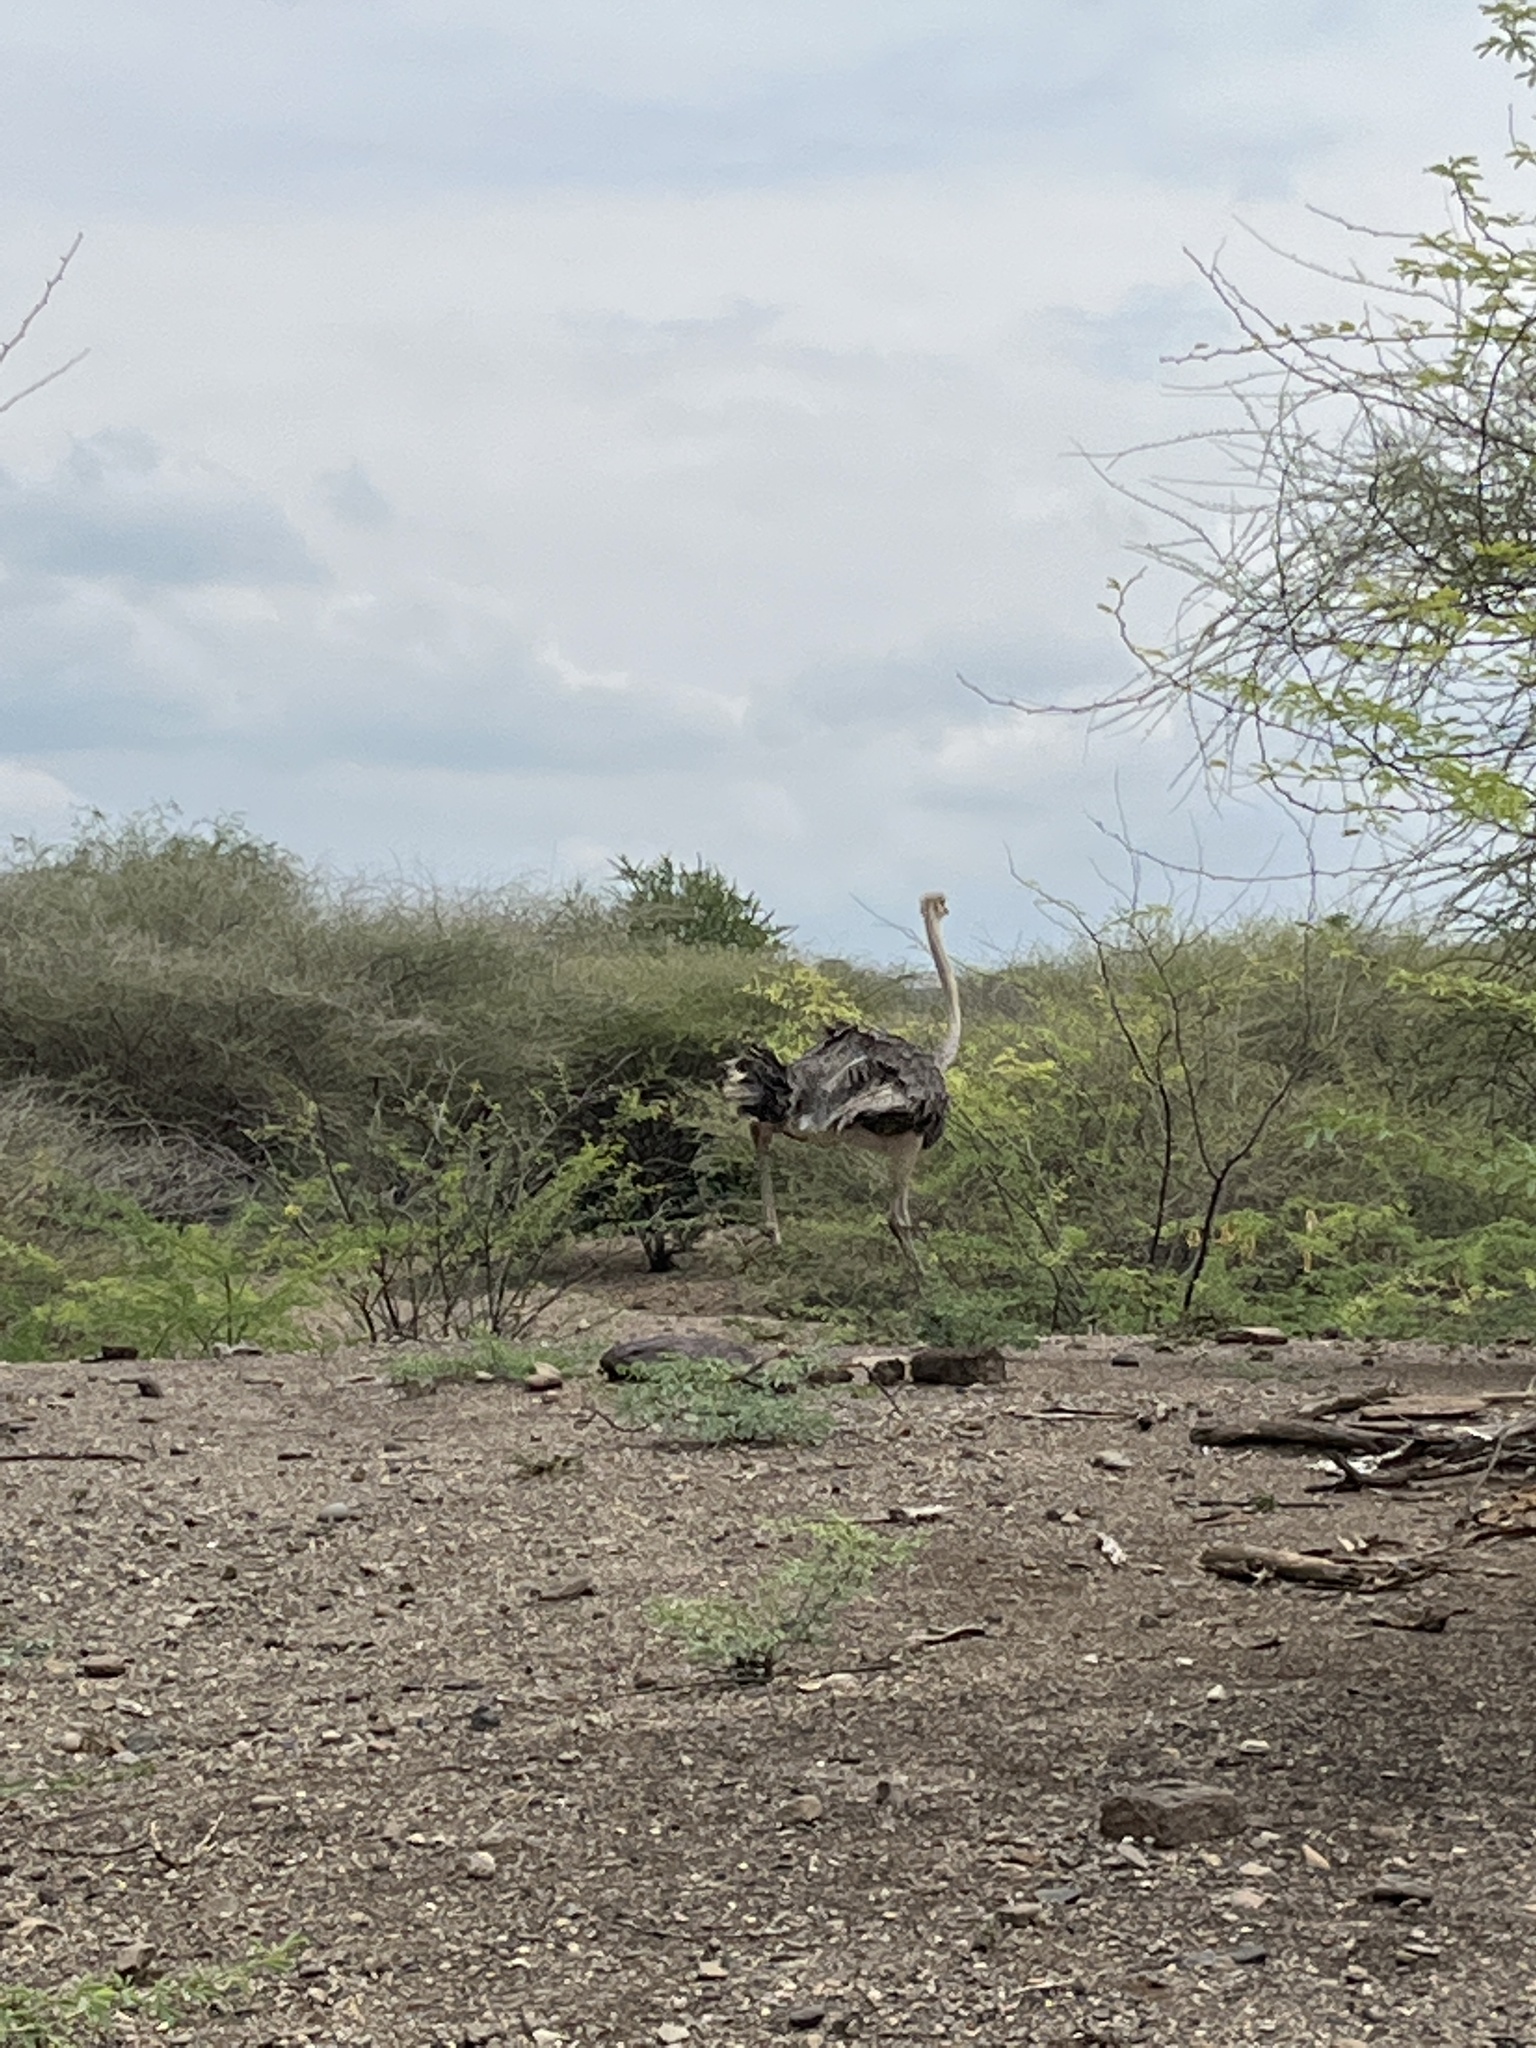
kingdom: Animalia
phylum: Chordata
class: Aves
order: Struthioniformes
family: Struthionidae
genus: Struthio
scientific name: Struthio camelus
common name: Common ostrich
